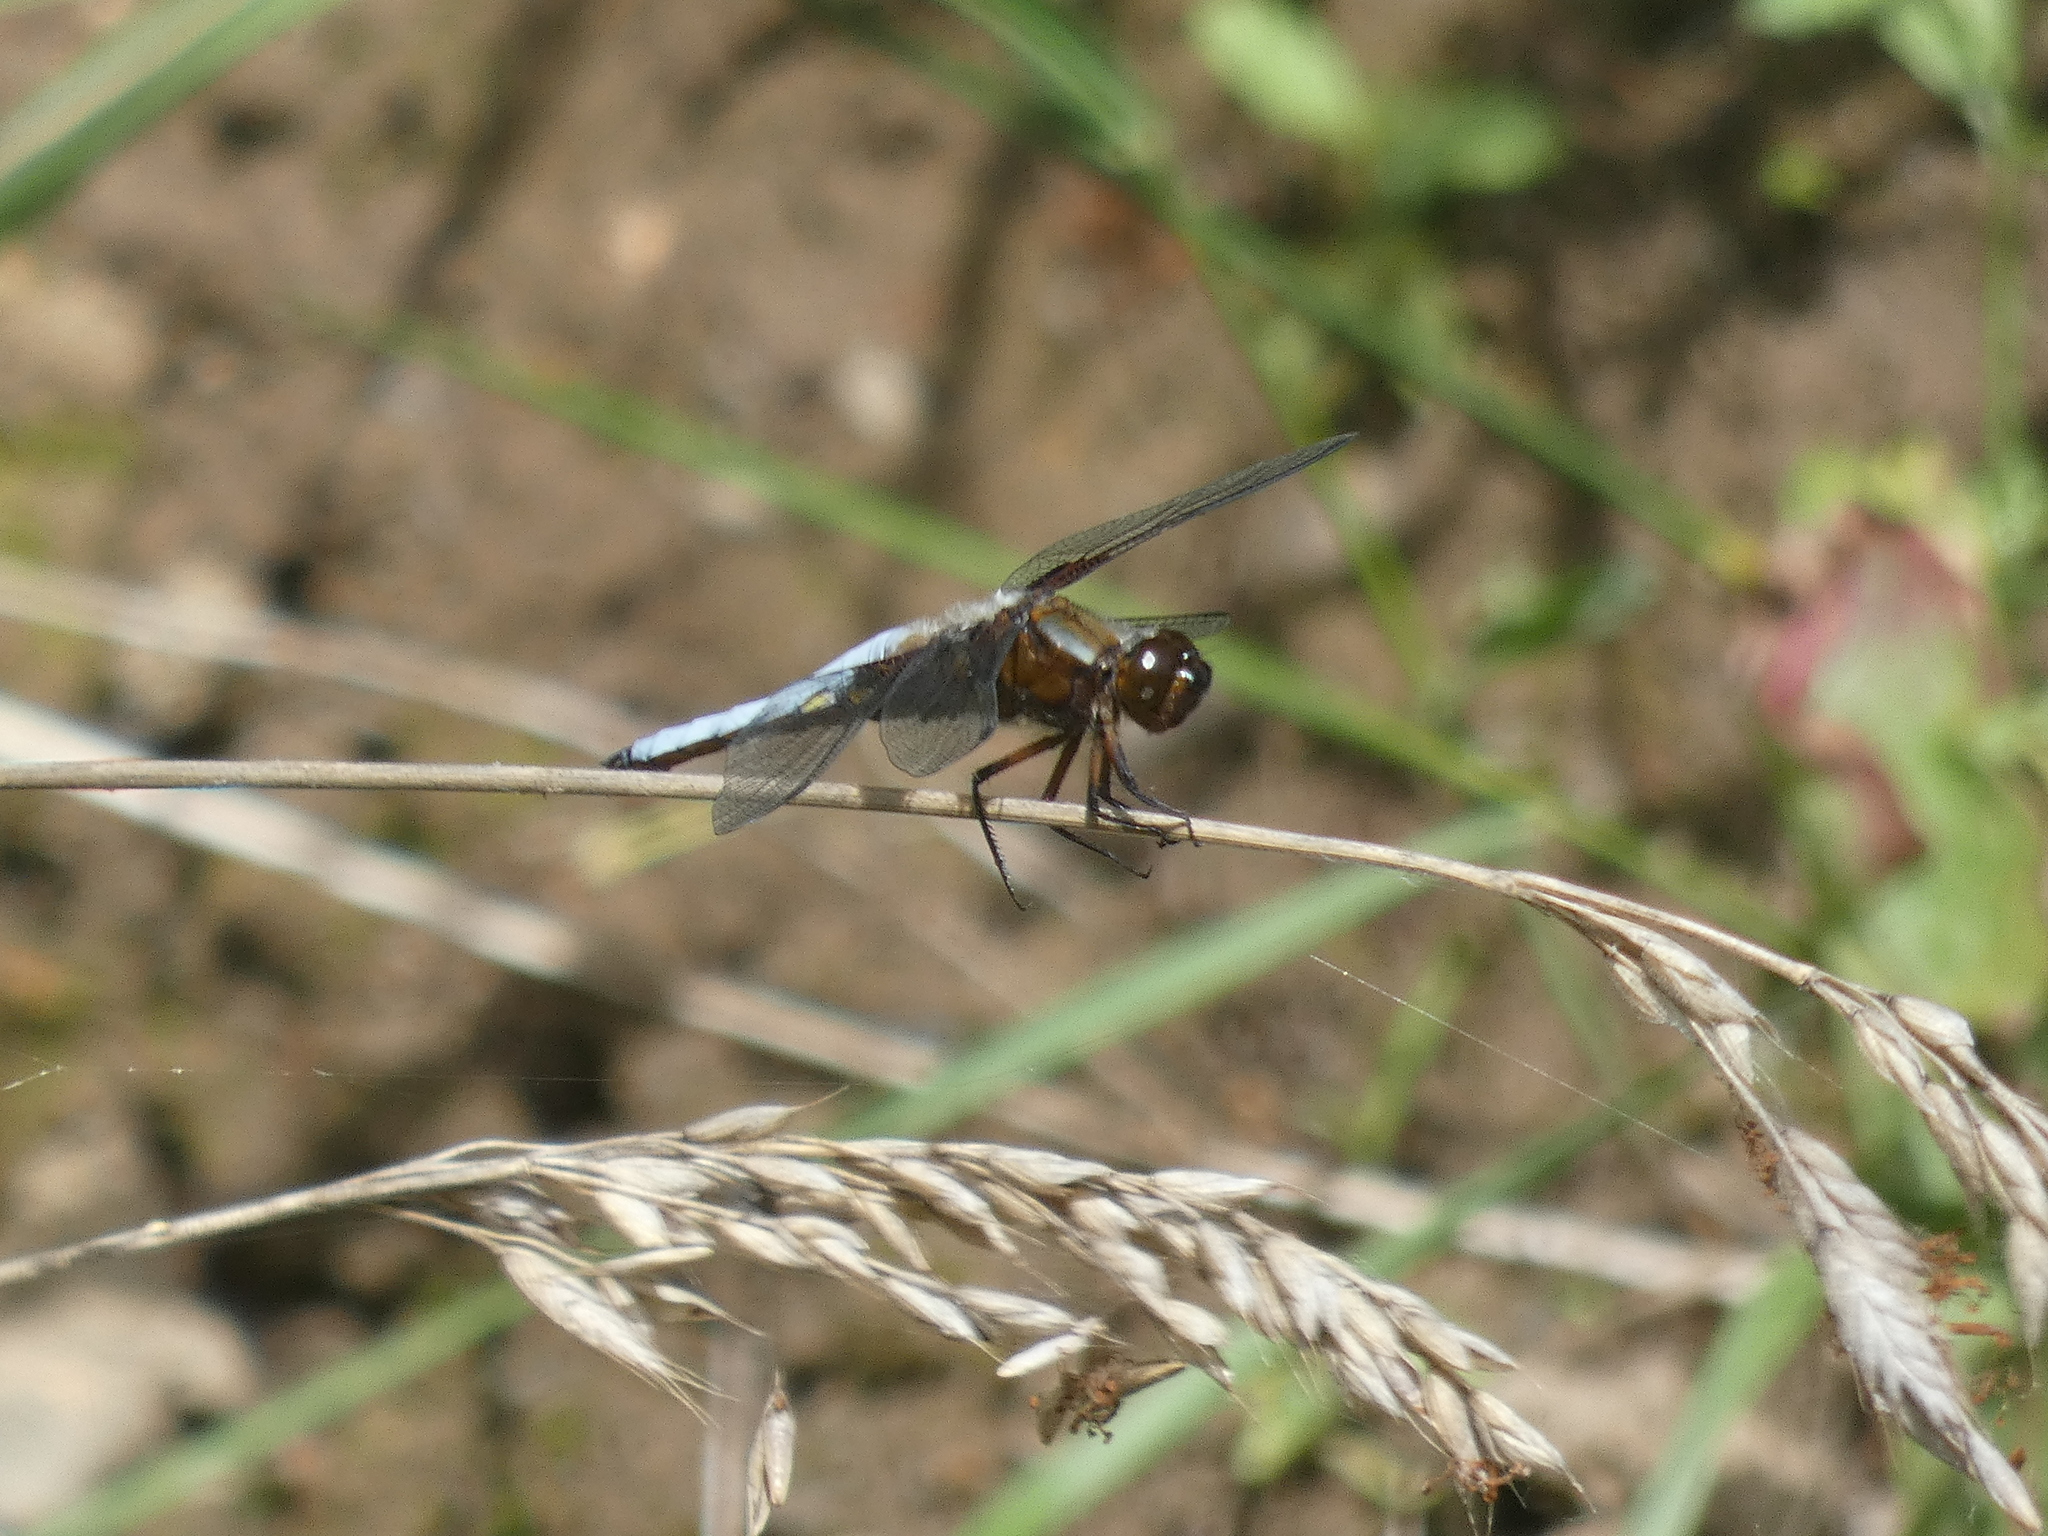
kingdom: Animalia
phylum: Arthropoda
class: Insecta
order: Odonata
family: Libellulidae
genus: Libellula
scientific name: Libellula depressa
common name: Broad-bodied chaser
